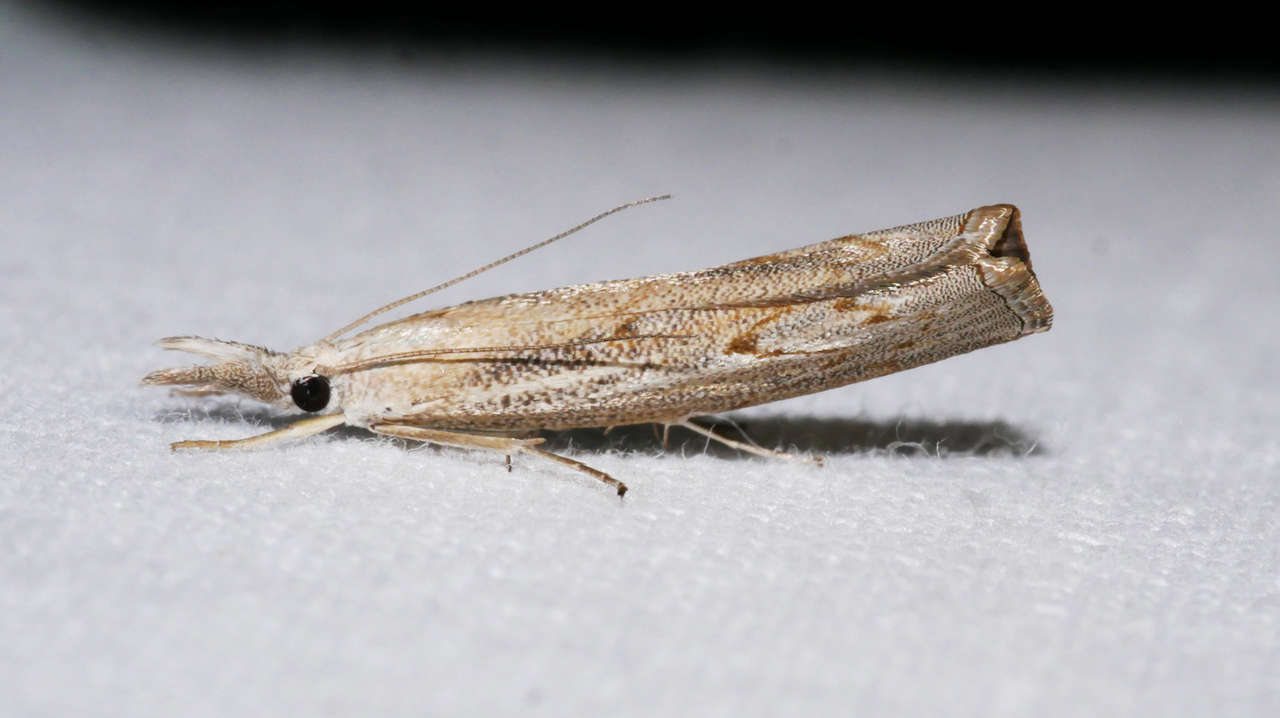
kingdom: Animalia
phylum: Arthropoda
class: Insecta
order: Lepidoptera
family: Crambidae
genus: Culladia
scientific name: Culladia cuneiferellus
